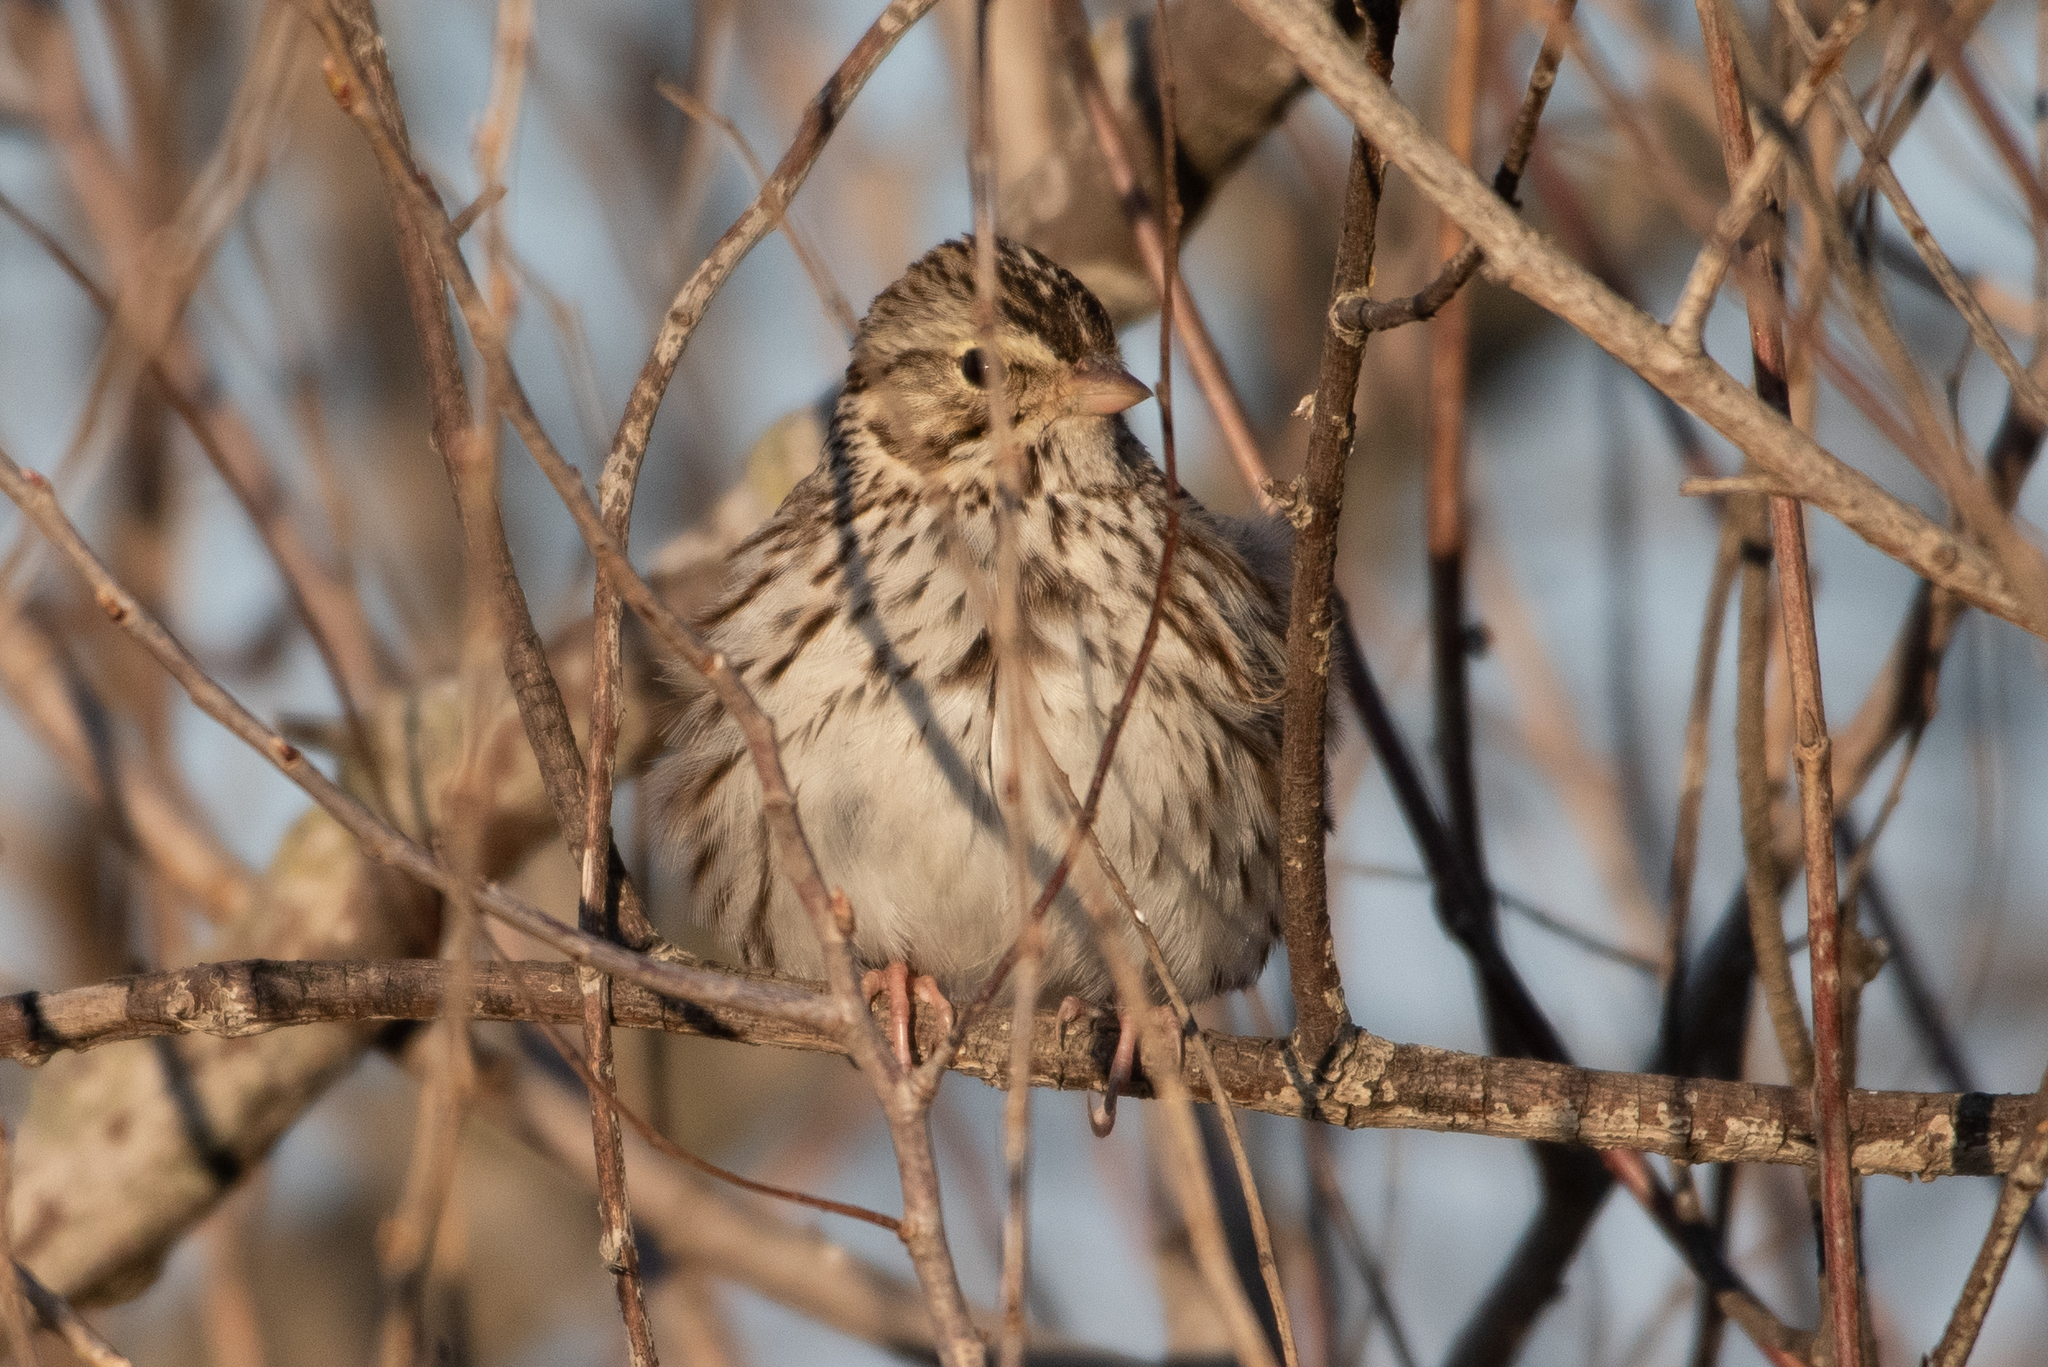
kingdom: Animalia
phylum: Chordata
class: Aves
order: Passeriformes
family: Passerellidae
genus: Passerculus
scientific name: Passerculus sandwichensis
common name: Savannah sparrow
